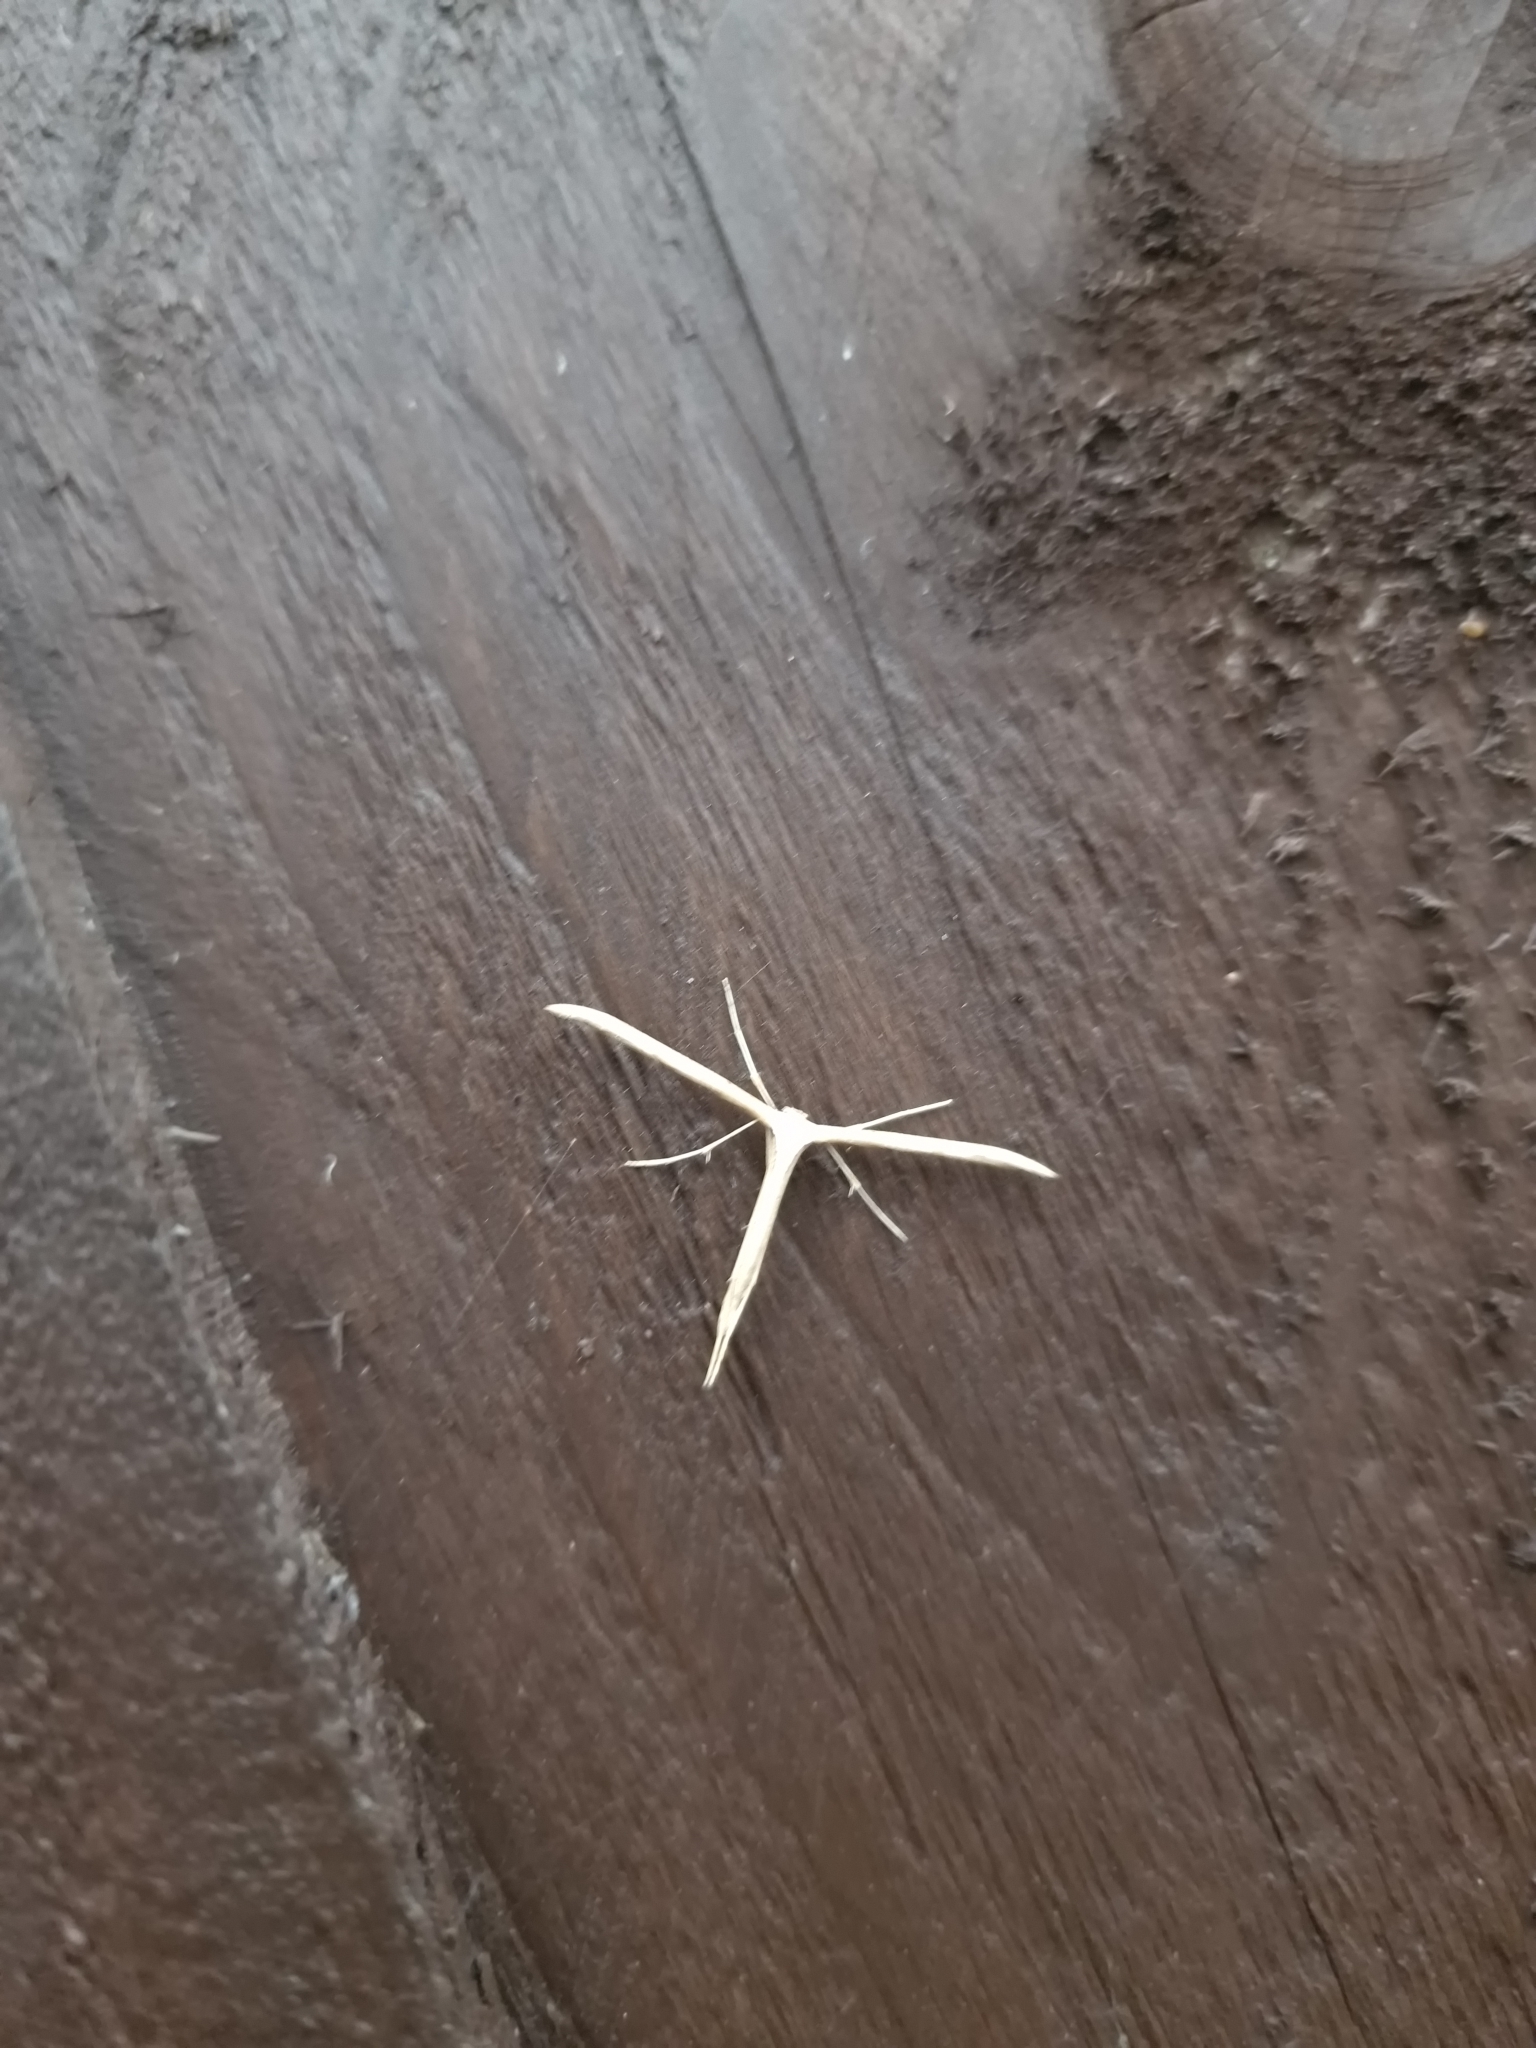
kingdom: Animalia
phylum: Arthropoda
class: Insecta
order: Lepidoptera
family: Pterophoridae
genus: Emmelina
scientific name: Emmelina monodactyla
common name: Common plume
